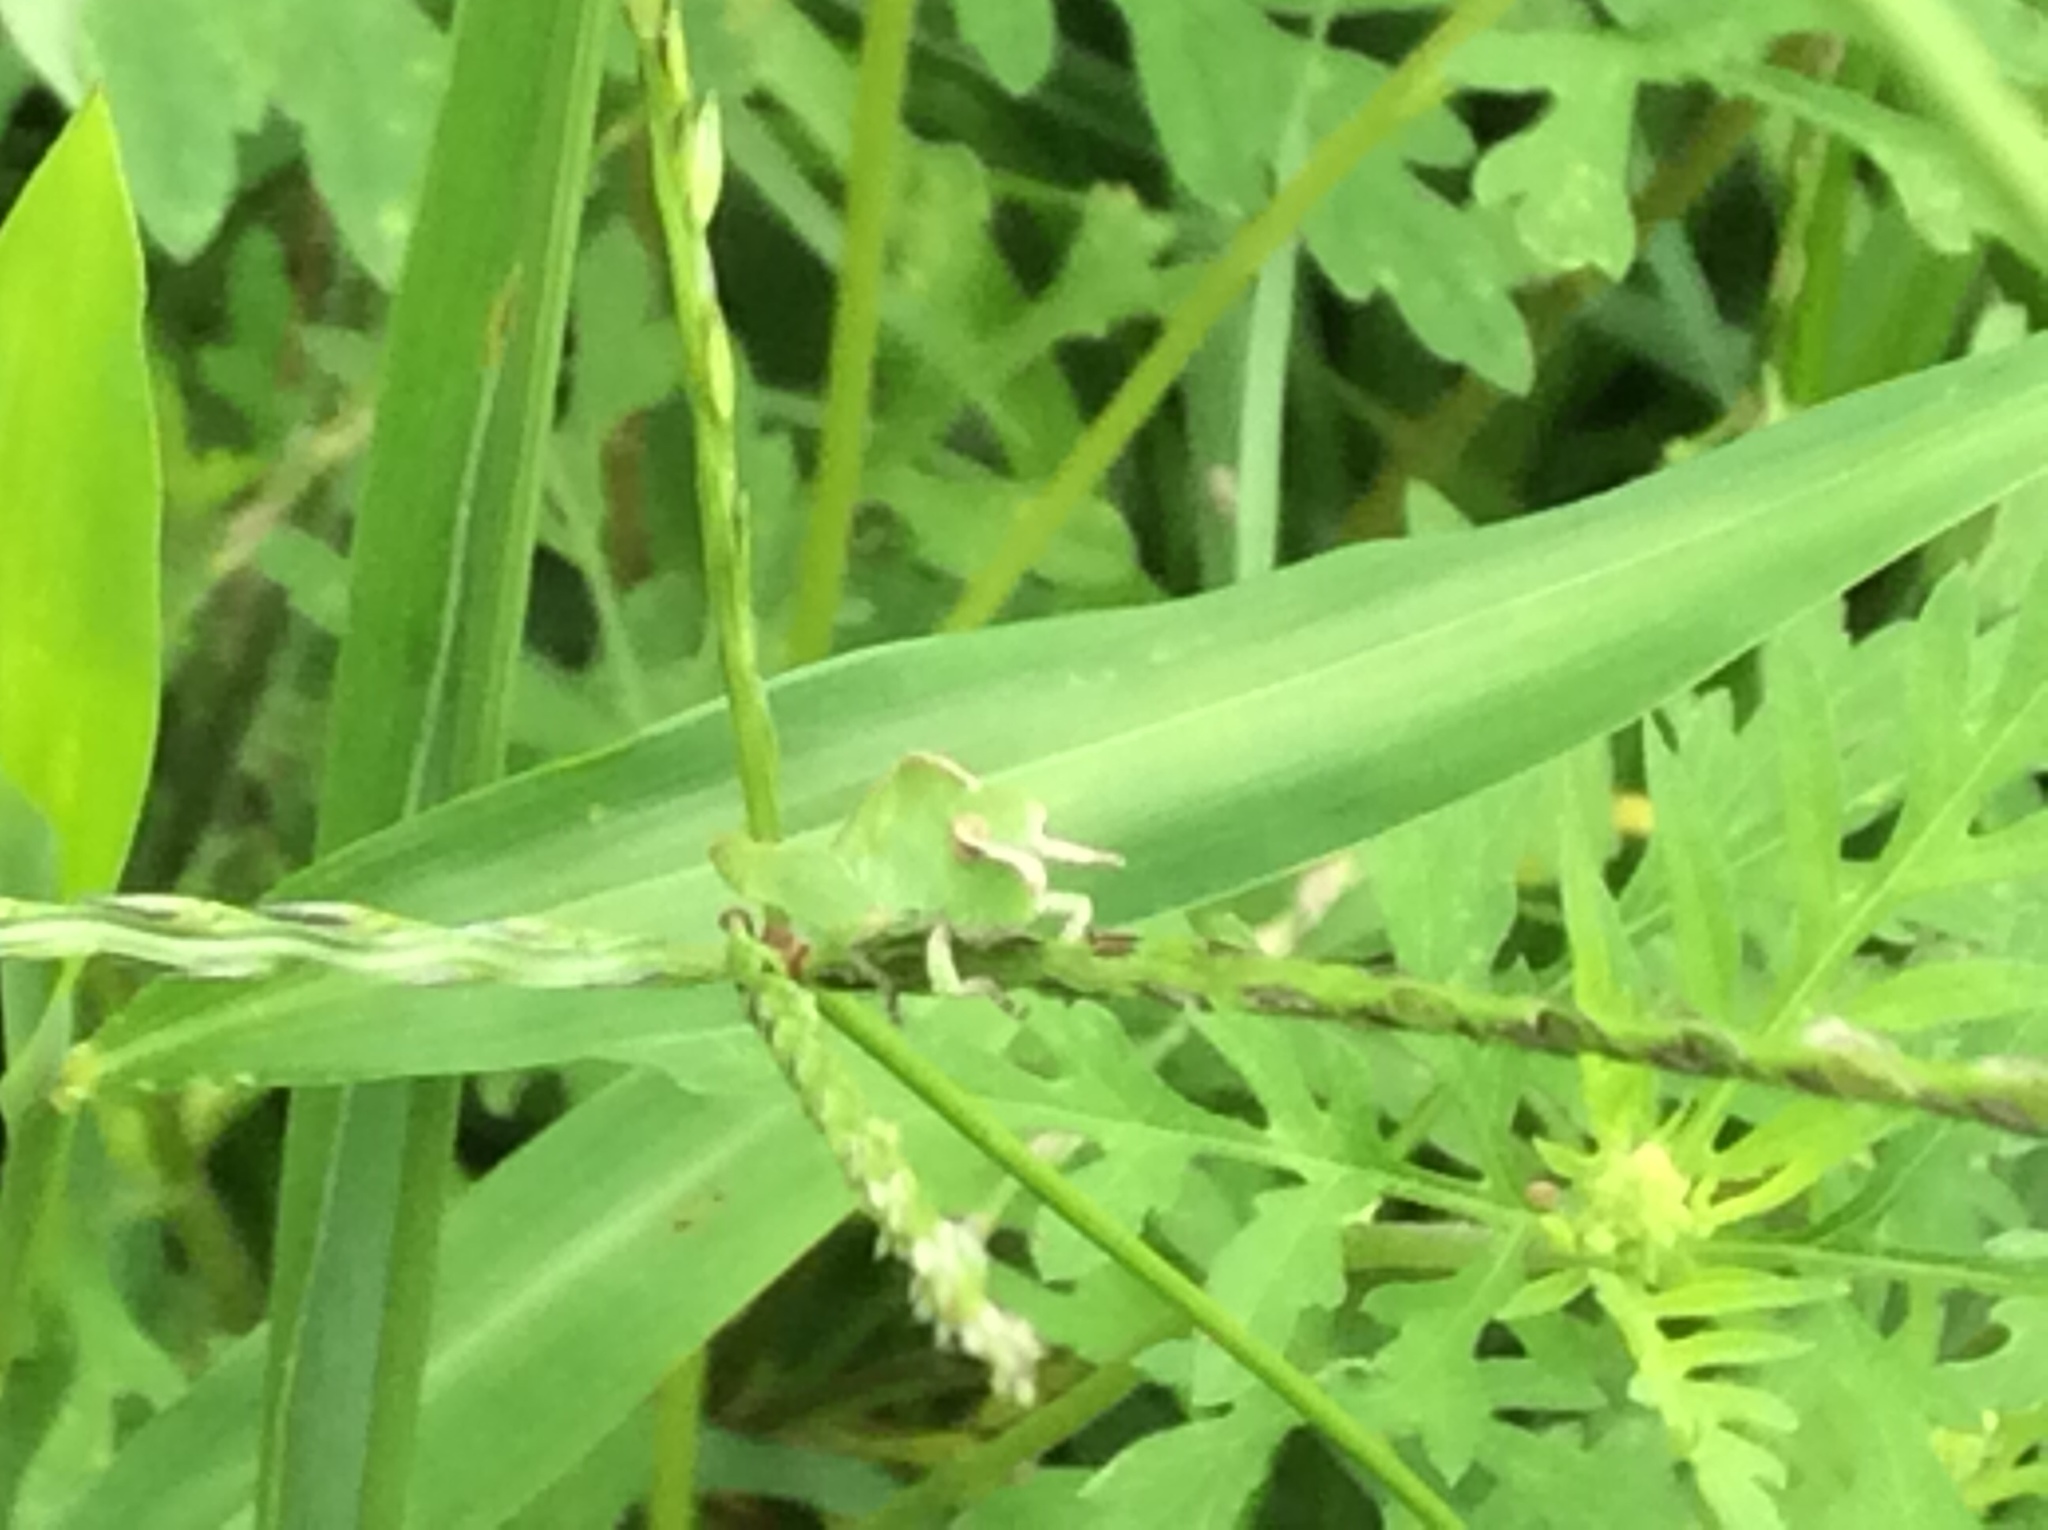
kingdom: Animalia
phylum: Arthropoda
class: Insecta
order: Orthoptera
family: Acrididae
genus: Chortophaga
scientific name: Chortophaga viridifasciata
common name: Green-striped grasshopper
